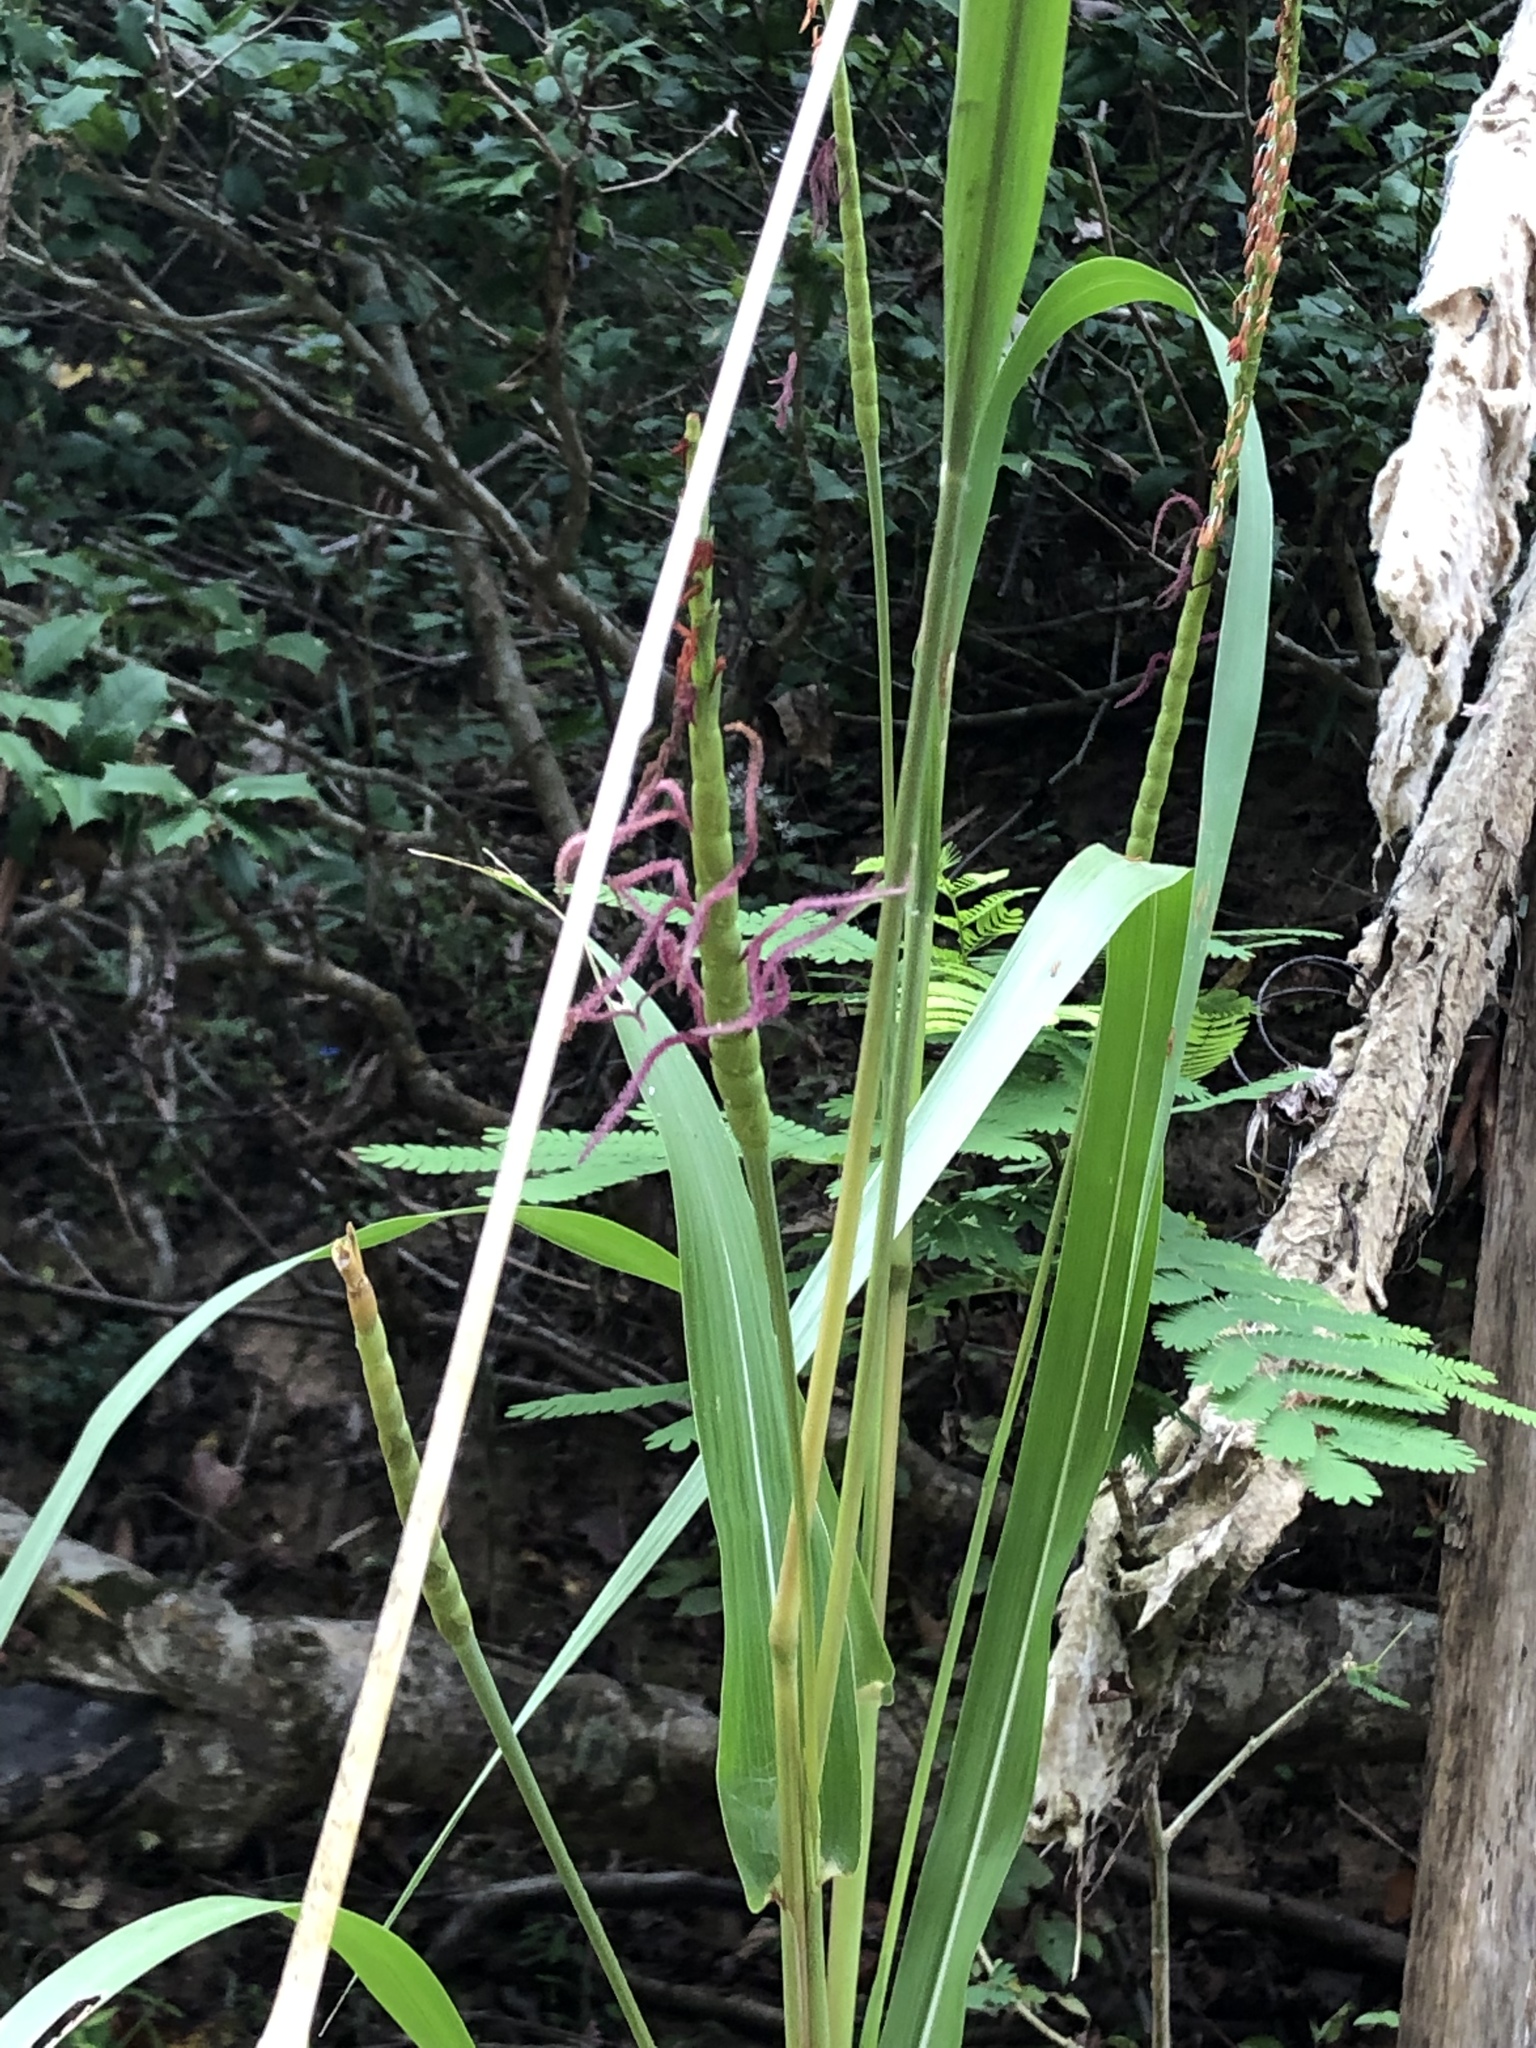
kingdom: Plantae
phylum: Tracheophyta
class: Liliopsida
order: Poales
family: Poaceae
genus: Tripsacum
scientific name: Tripsacum dactyloides
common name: Buffalo-grass
